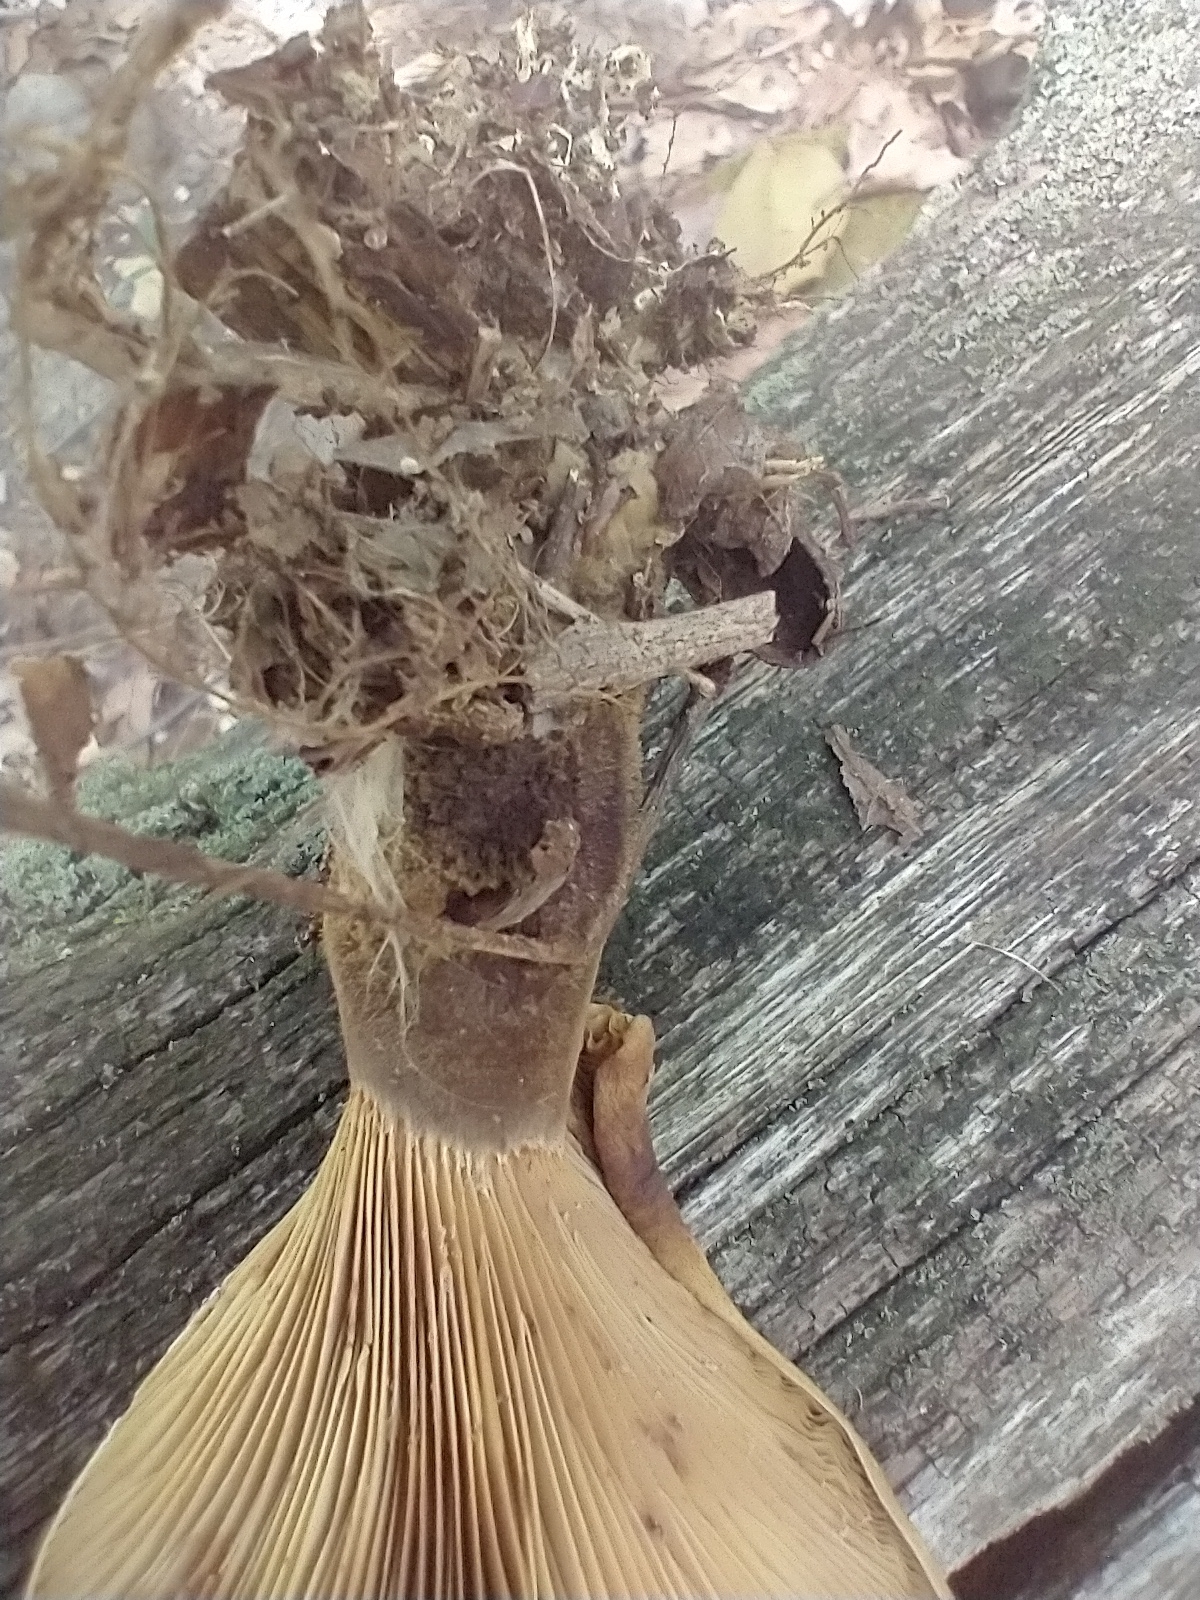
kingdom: Fungi
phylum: Basidiomycota
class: Agaricomycetes
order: Boletales
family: Tapinellaceae
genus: Tapinella
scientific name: Tapinella atrotomentosa
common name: Velvet rollrim
